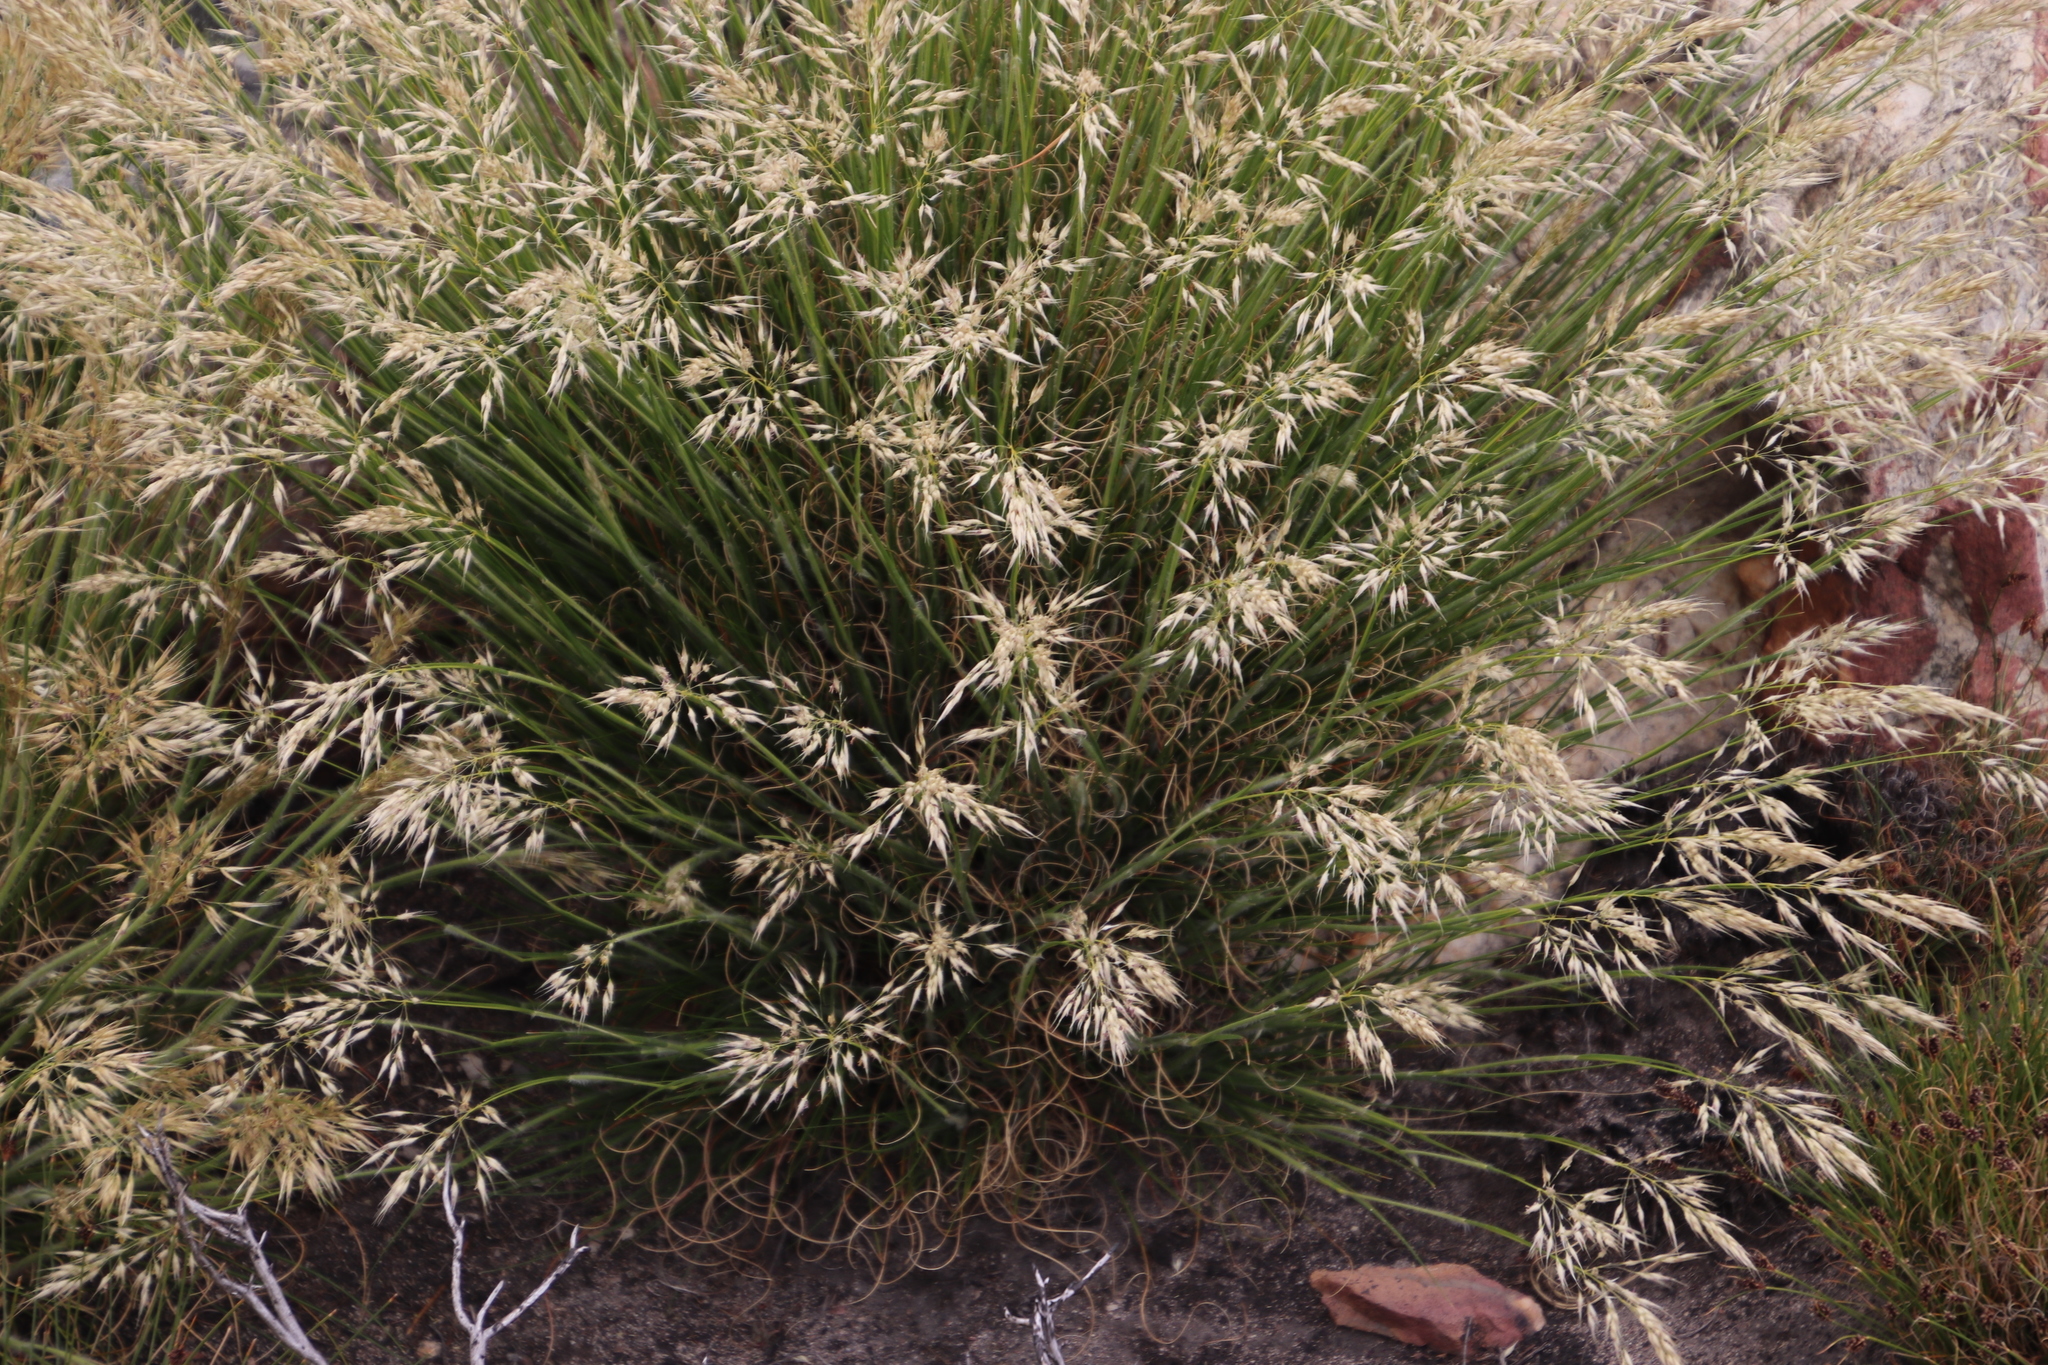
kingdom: Plantae
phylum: Tracheophyta
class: Liliopsida
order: Poales
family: Poaceae
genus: Pentameris
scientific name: Pentameris dregeana
